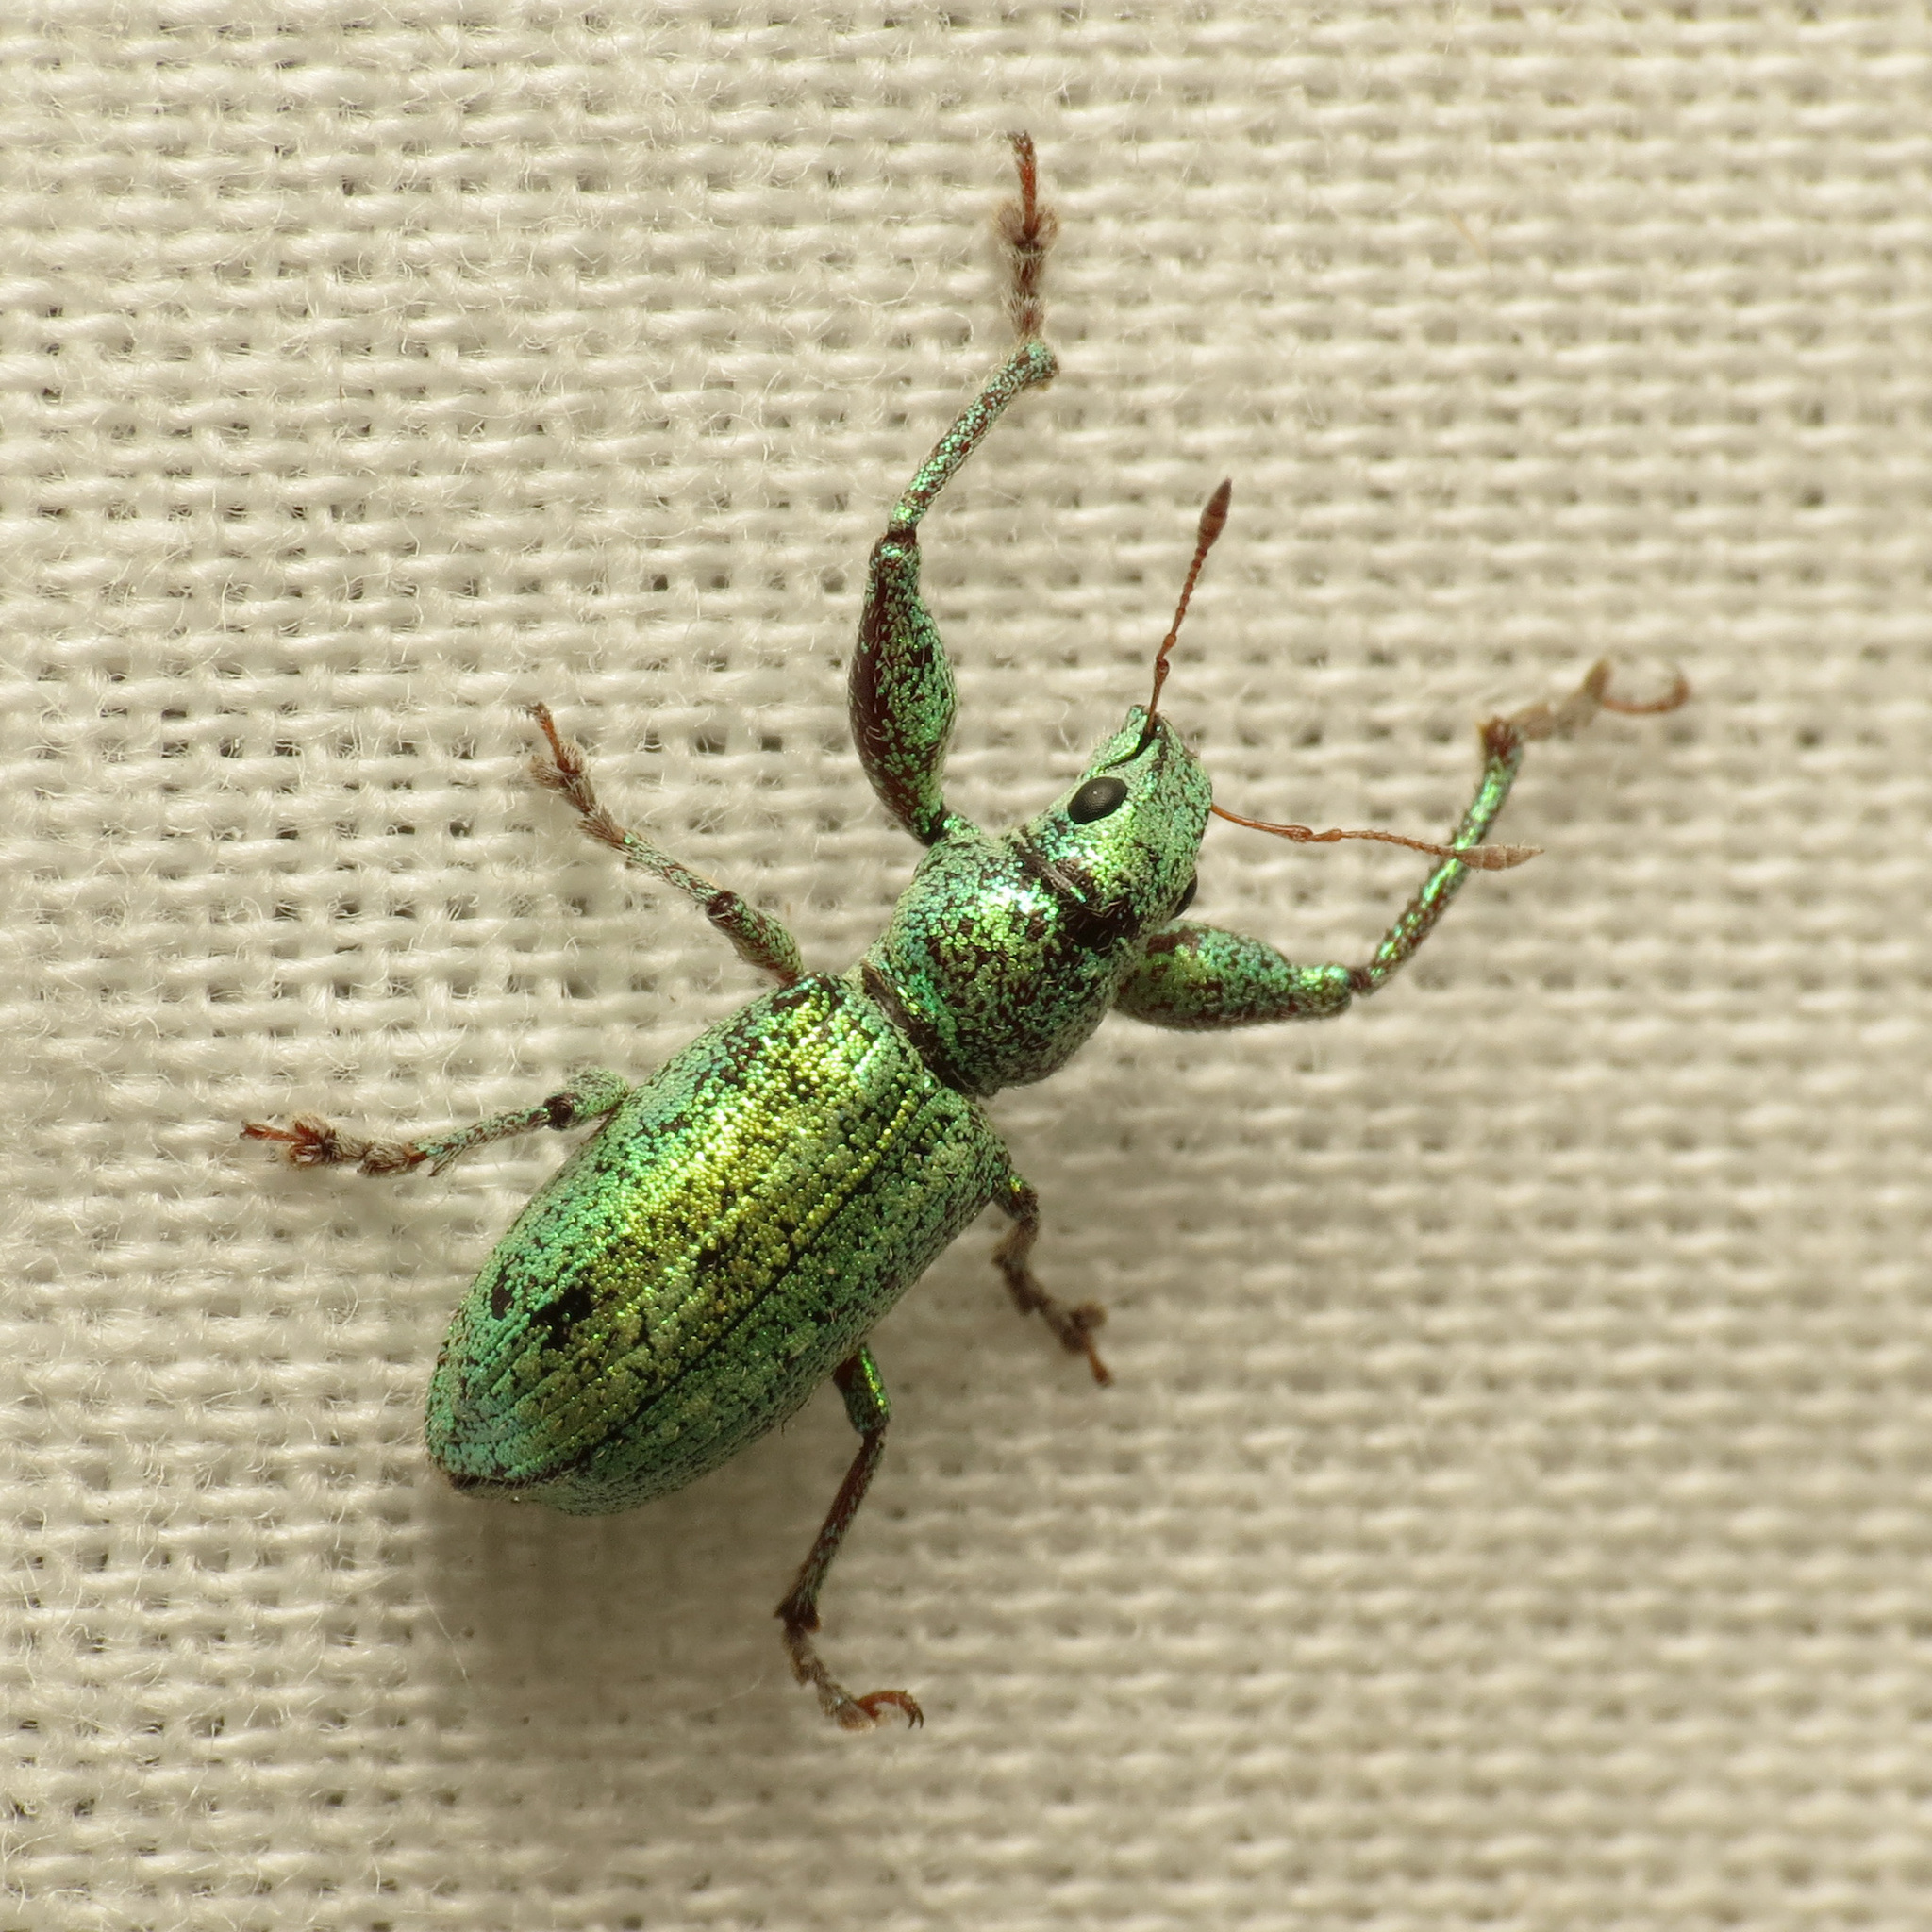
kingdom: Animalia
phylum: Arthropoda
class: Insecta
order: Coleoptera
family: Curculionidae
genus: Hadromeropsis
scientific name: Hadromeropsis opalina
